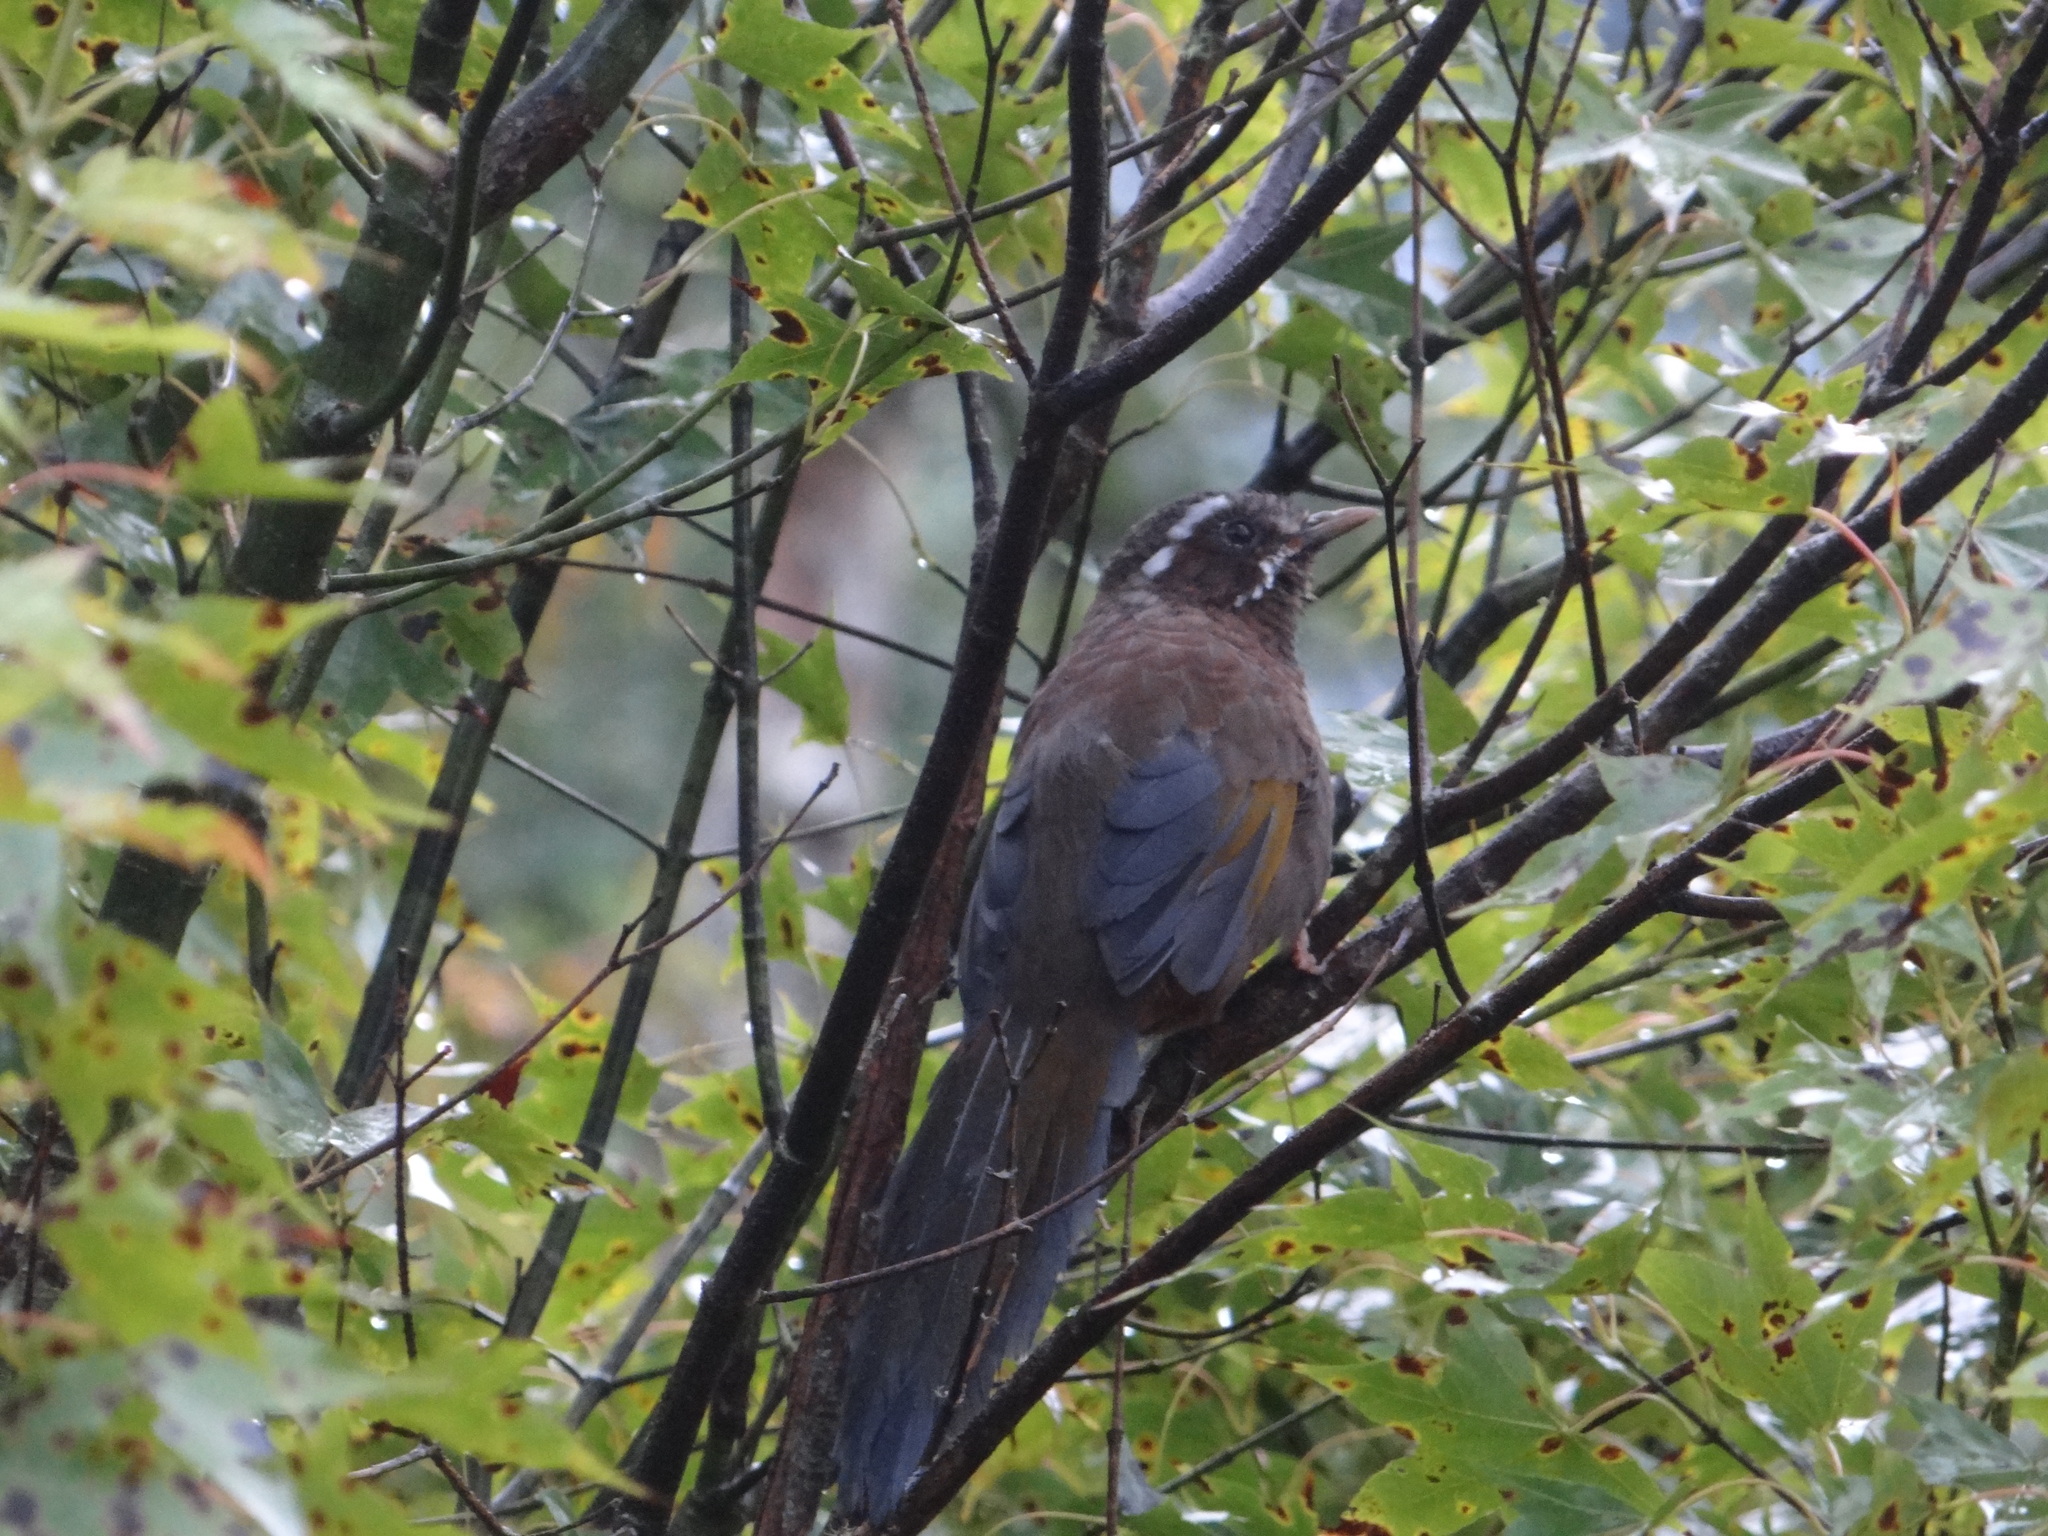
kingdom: Animalia
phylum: Chordata
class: Aves
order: Passeriformes
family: Leiothrichidae
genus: Trochalopteron
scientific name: Trochalopteron morrisonianum
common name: White-whiskered laughingthrush
